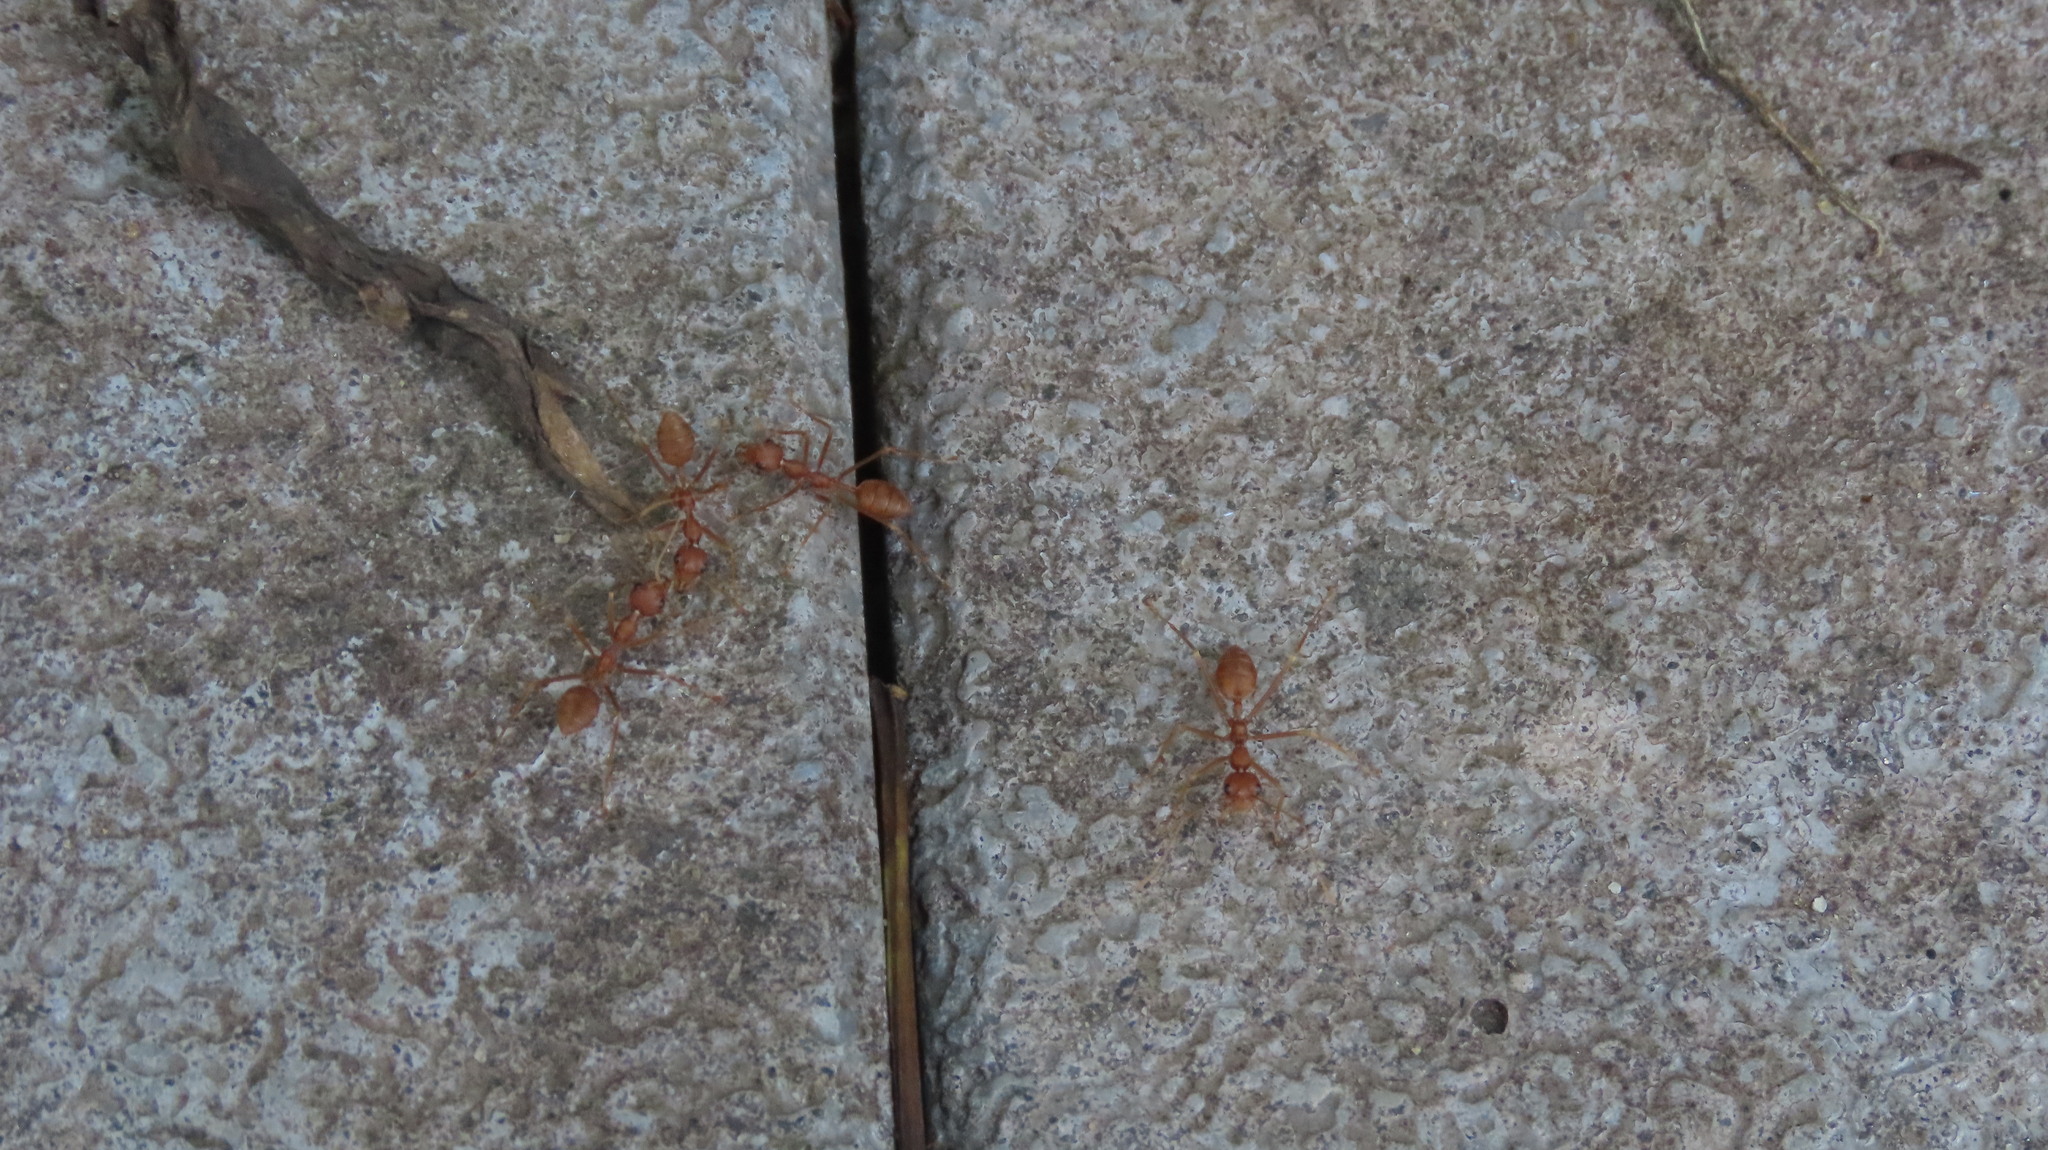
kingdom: Animalia
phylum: Arthropoda
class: Insecta
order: Hymenoptera
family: Formicidae
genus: Oecophylla
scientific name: Oecophylla smaragdina
